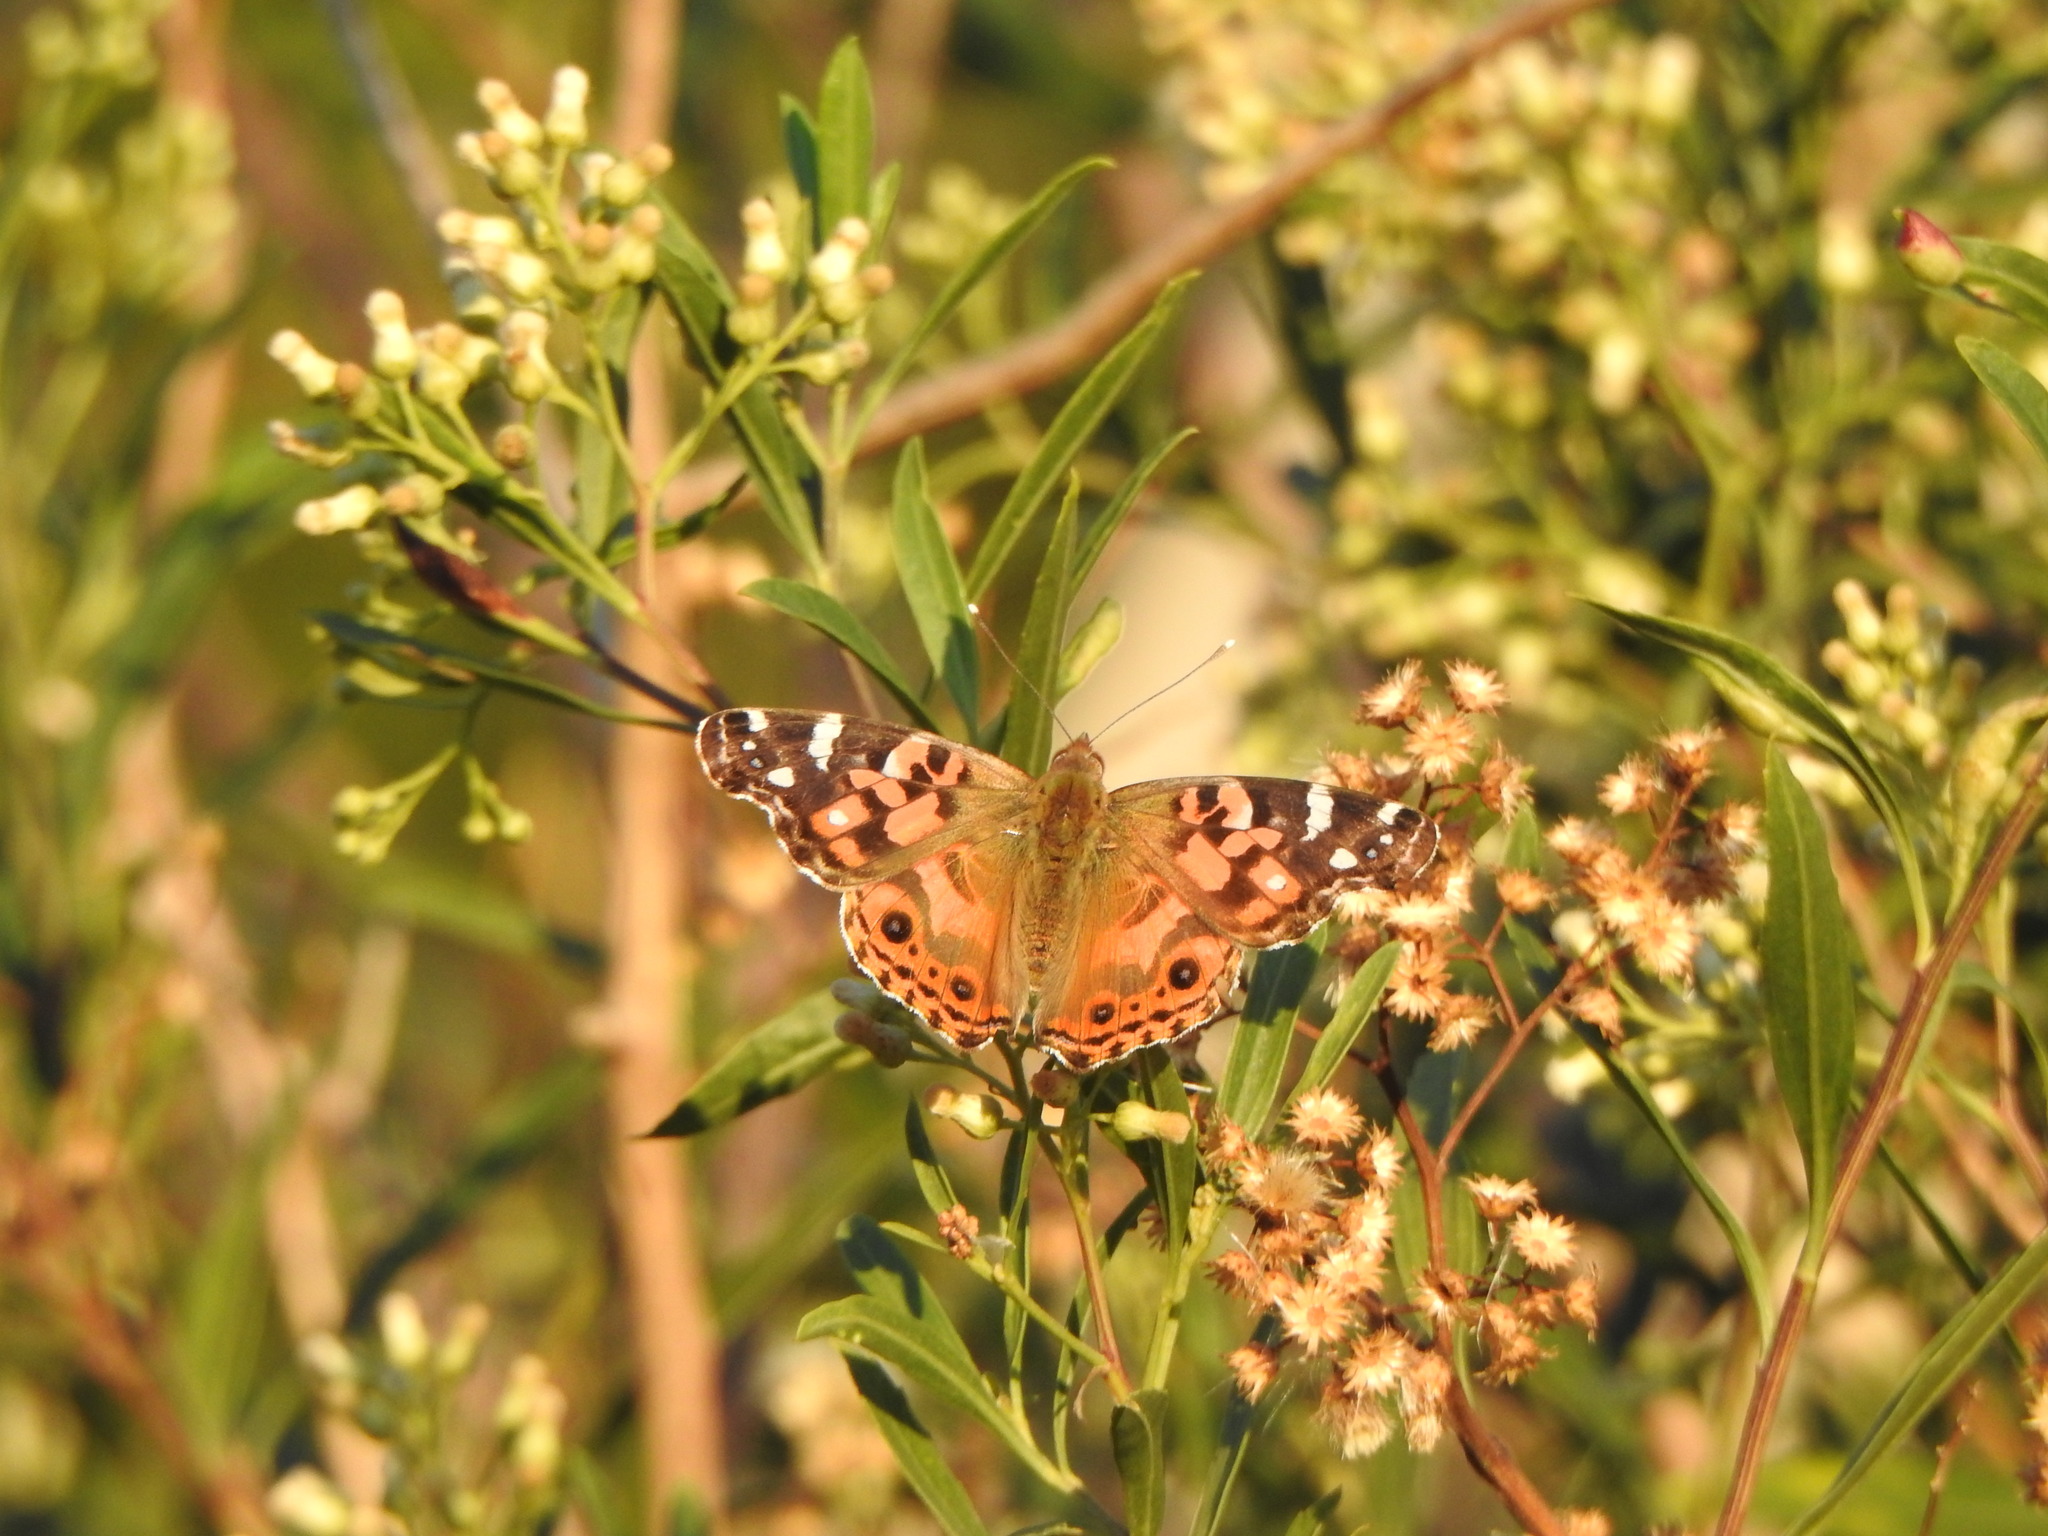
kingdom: Animalia
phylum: Arthropoda
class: Insecta
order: Lepidoptera
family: Nymphalidae
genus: Vanessa
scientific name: Vanessa braziliensis
